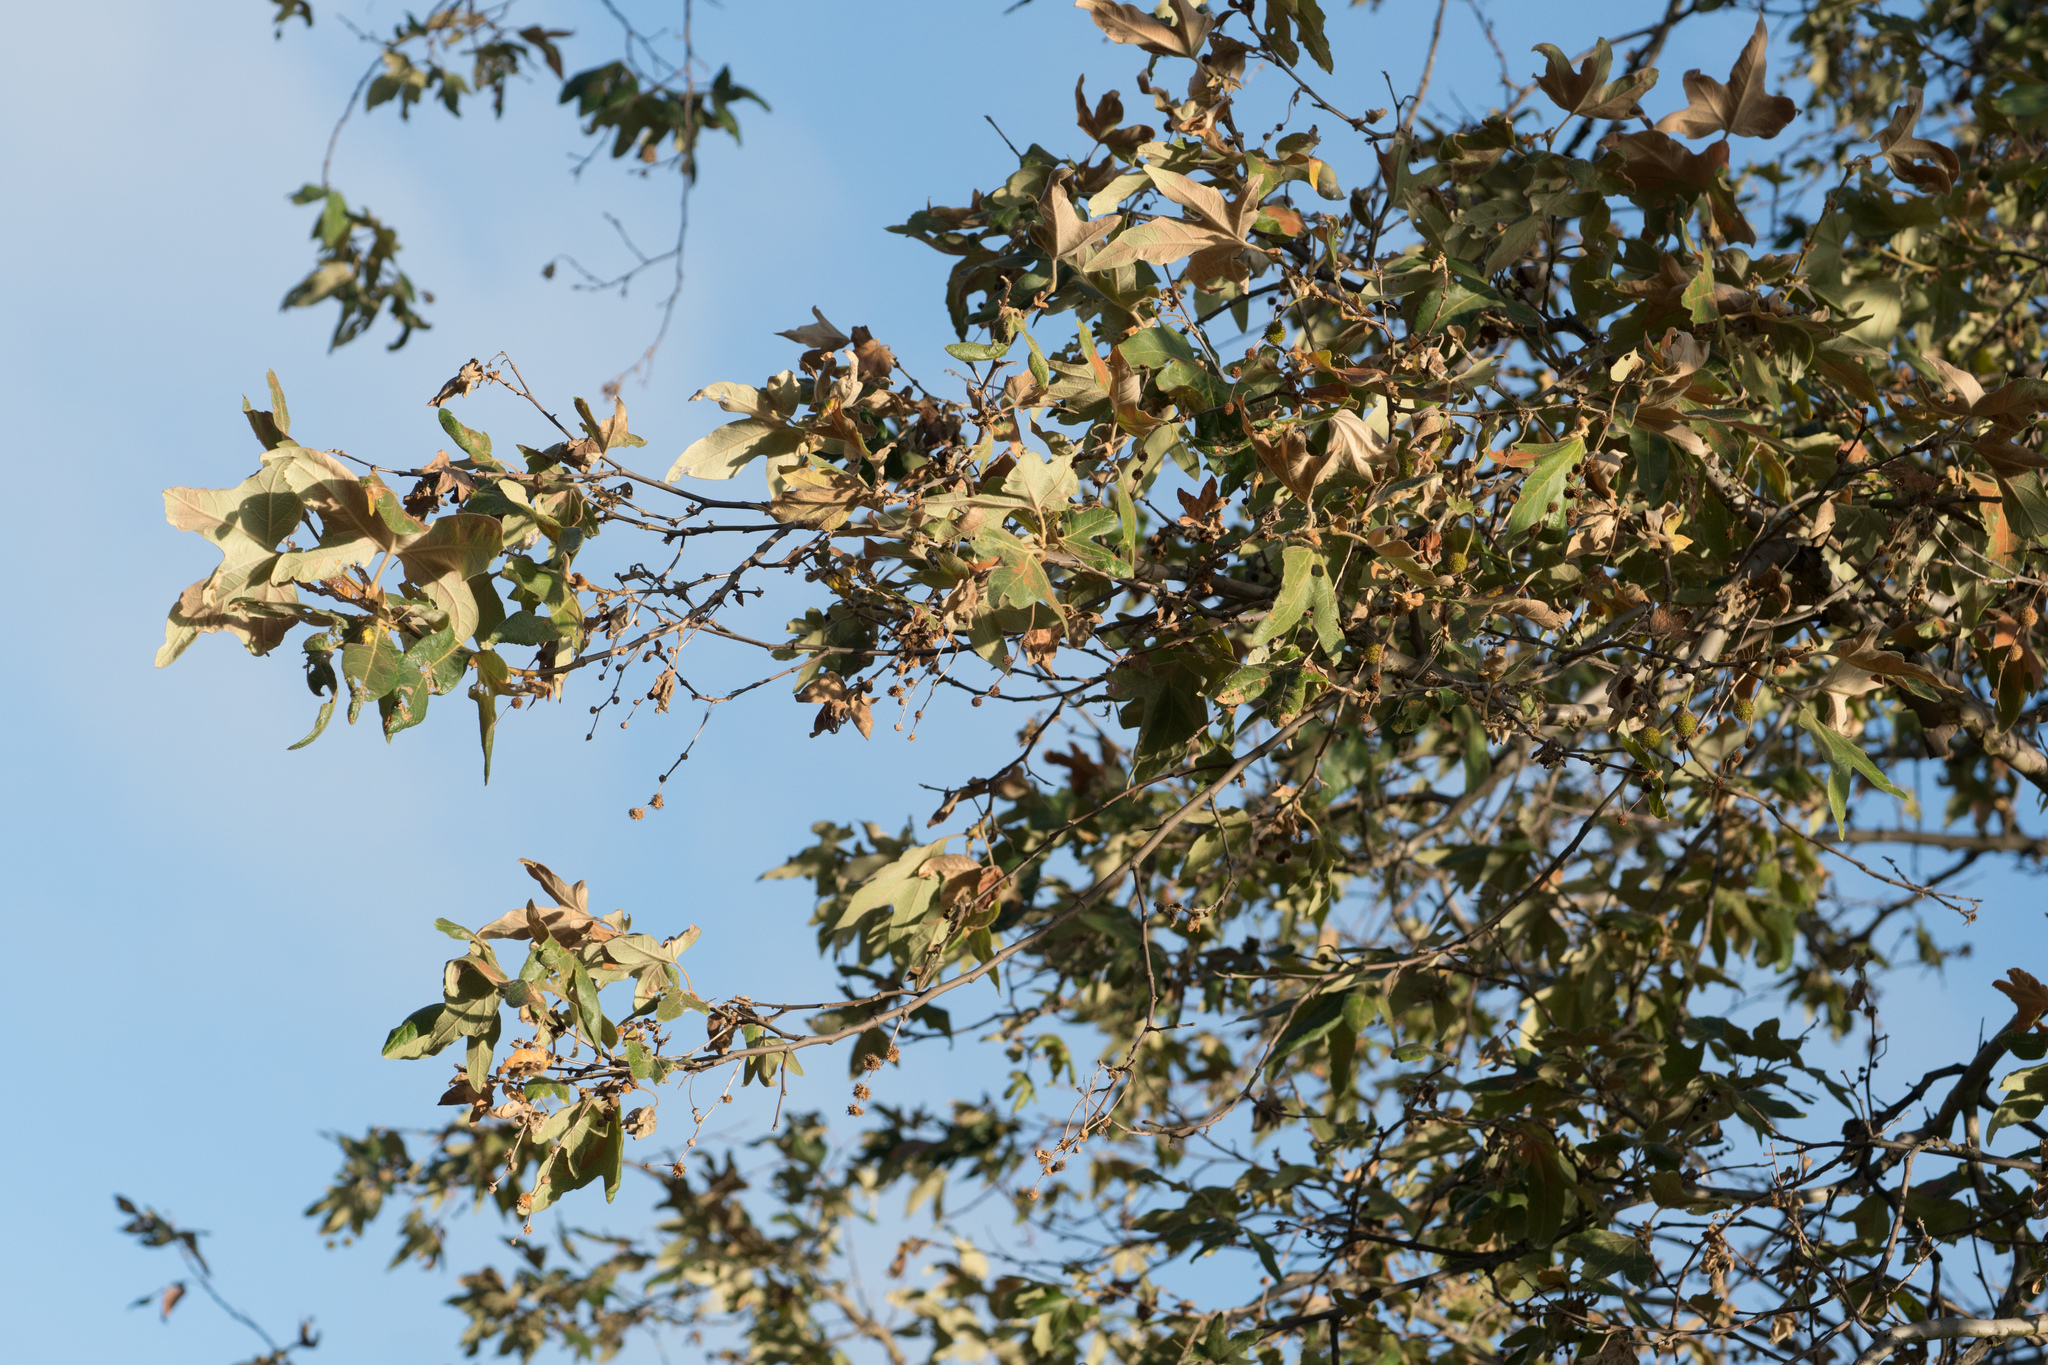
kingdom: Plantae
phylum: Tracheophyta
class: Magnoliopsida
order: Proteales
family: Platanaceae
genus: Platanus
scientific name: Platanus racemosa
